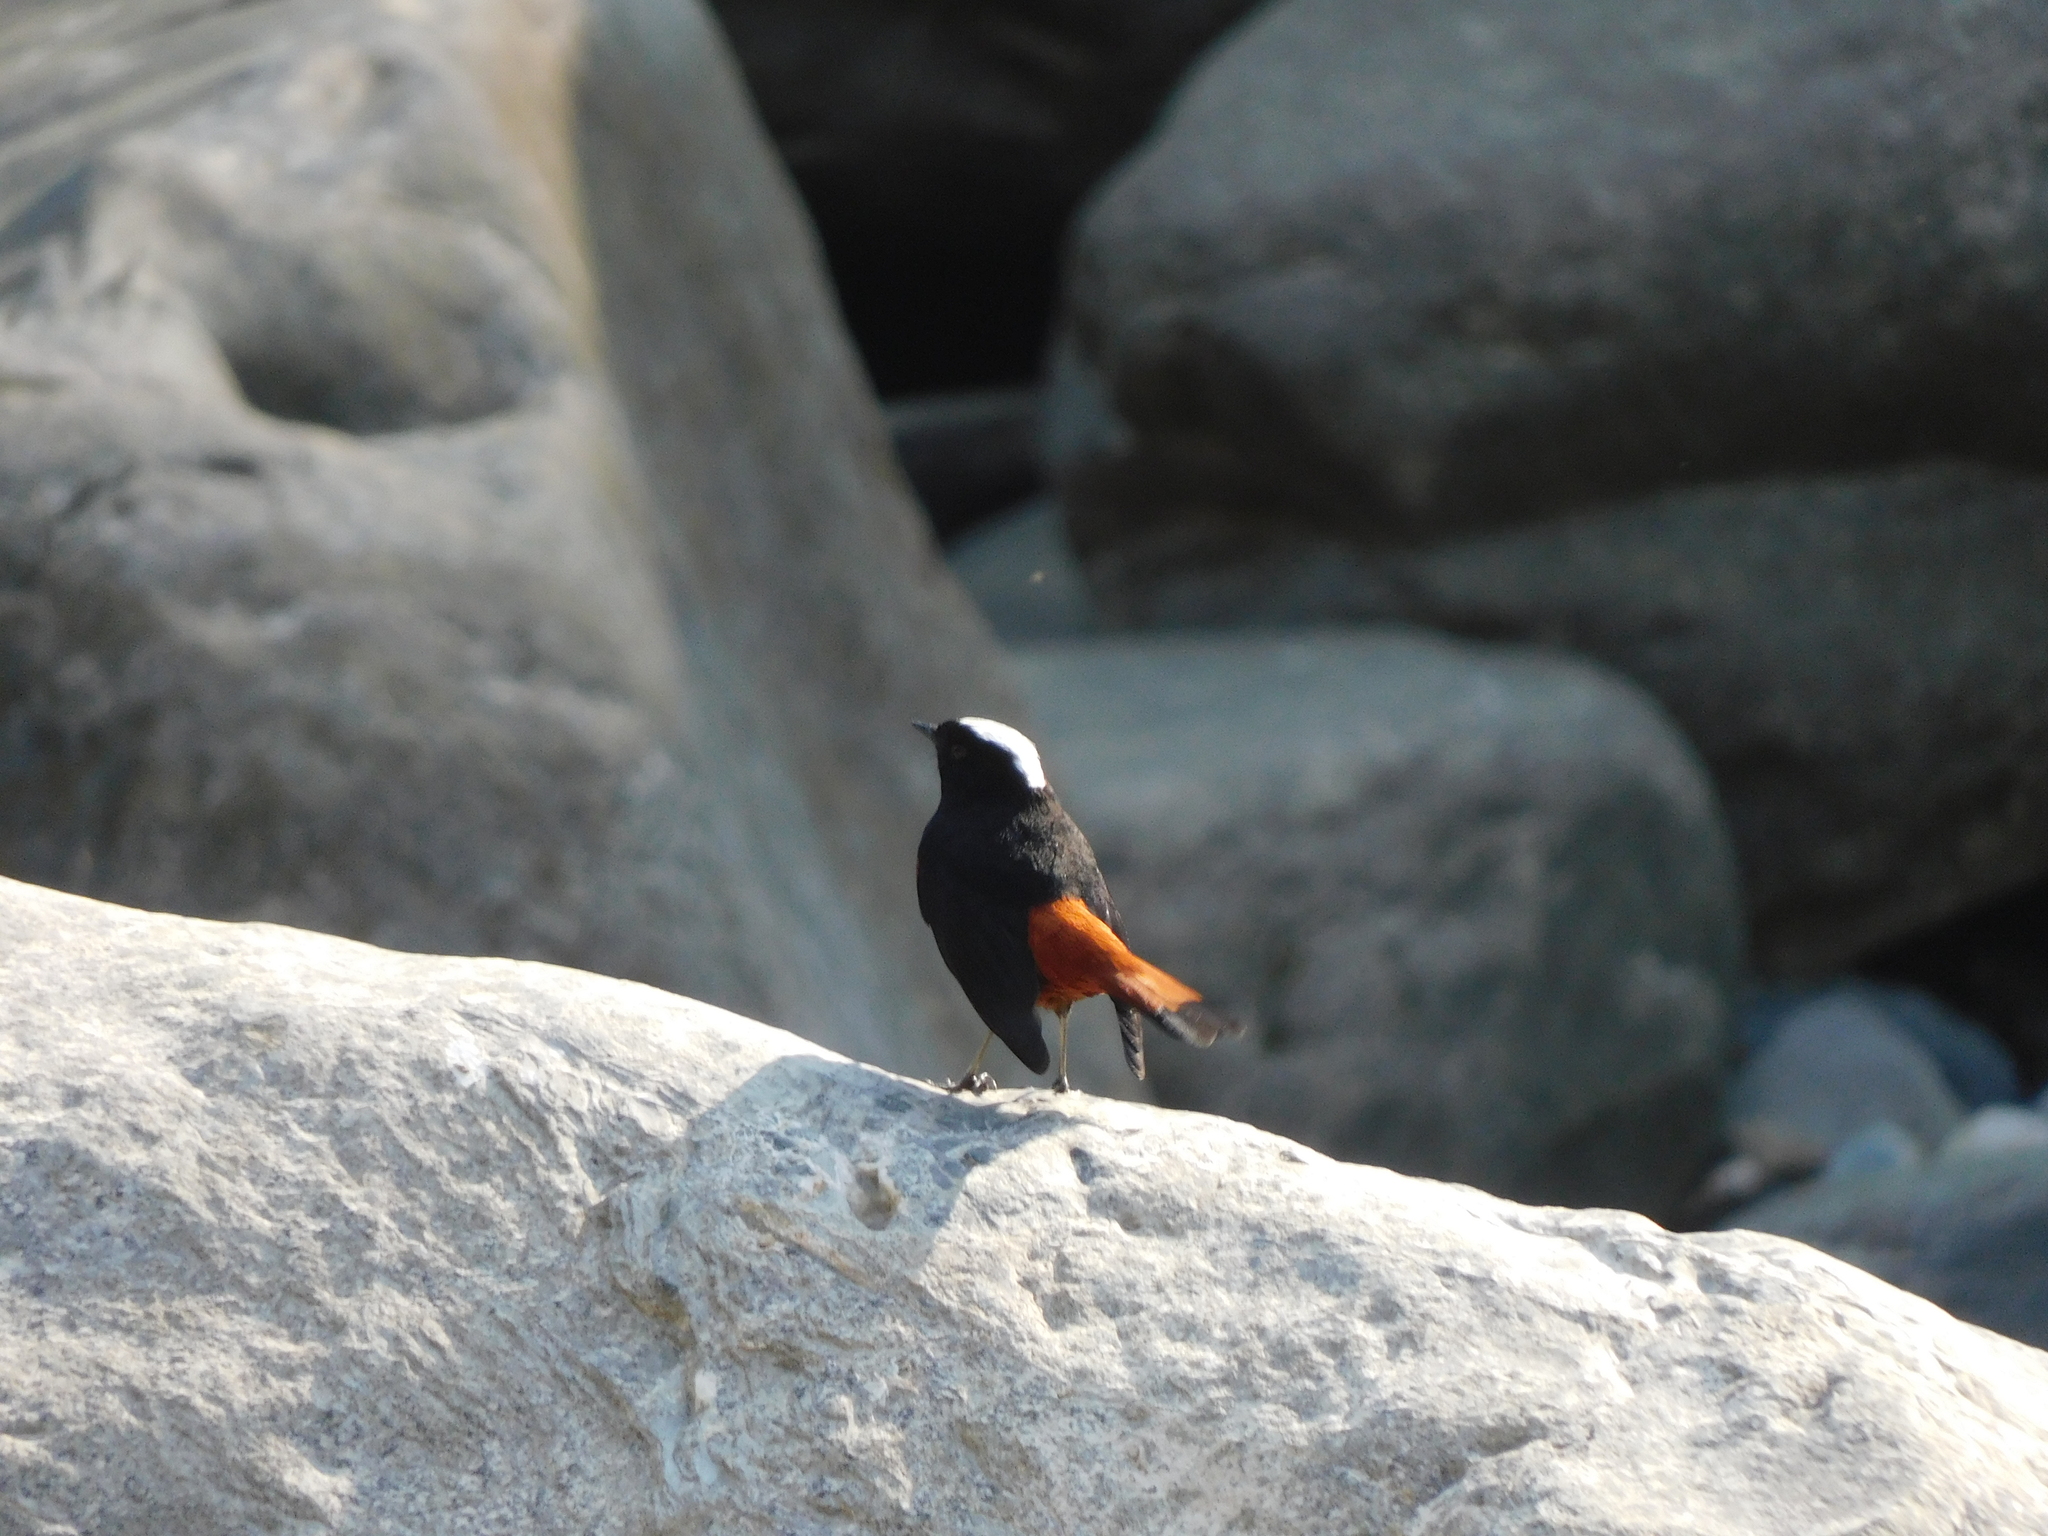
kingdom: Animalia
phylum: Chordata
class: Aves
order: Passeriformes
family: Muscicapidae
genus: Chaimarrornis
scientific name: Chaimarrornis leucocephalus
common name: White-capped redstart
